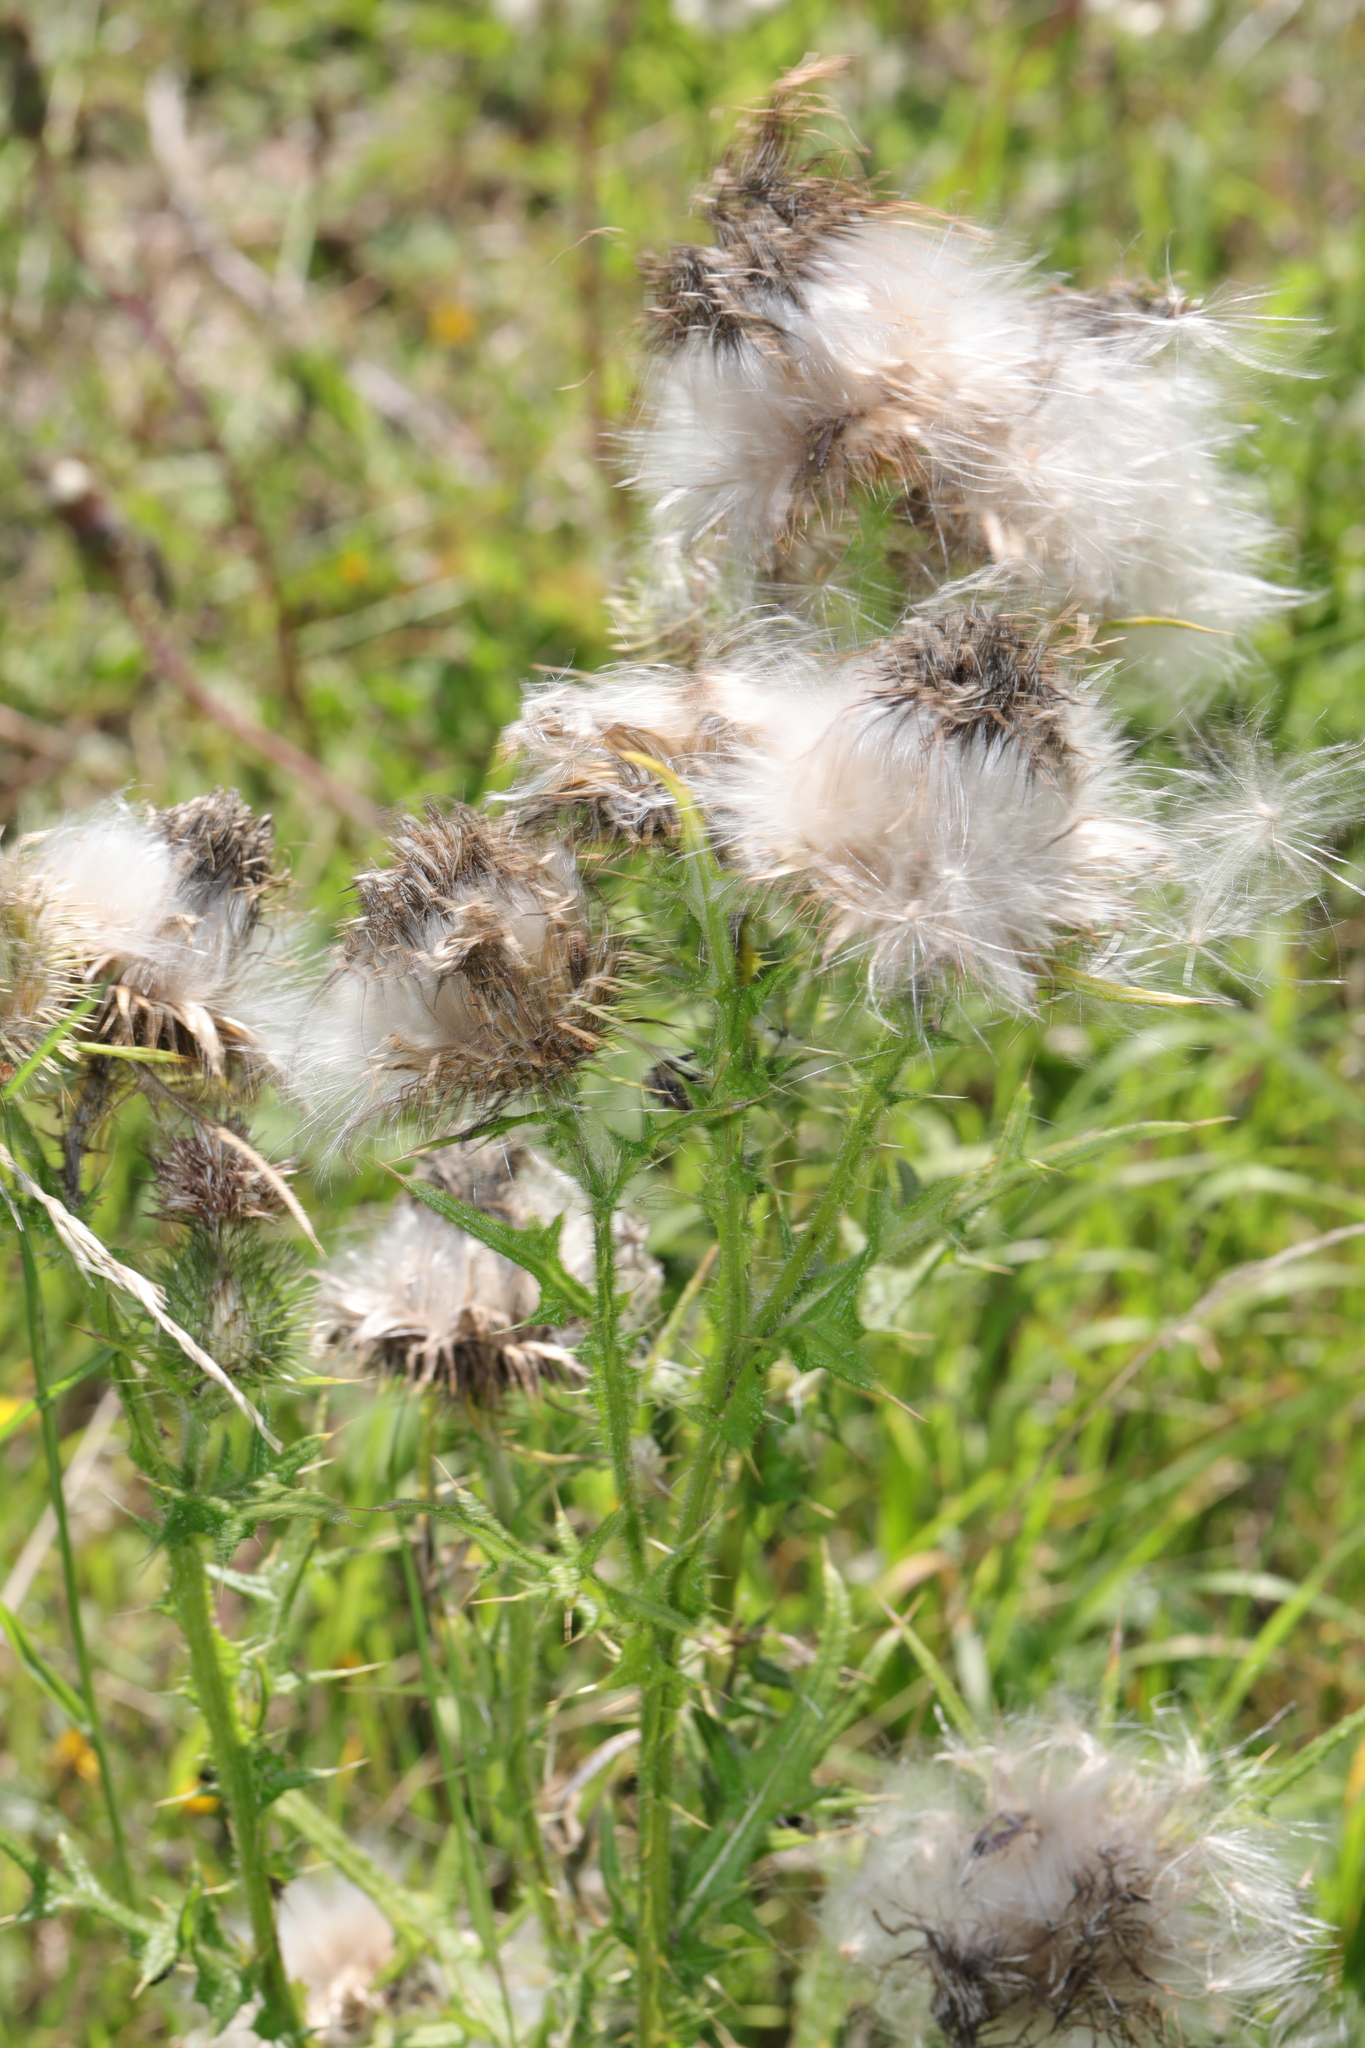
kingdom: Plantae
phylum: Tracheophyta
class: Magnoliopsida
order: Asterales
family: Asteraceae
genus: Cirsium
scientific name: Cirsium vulgare
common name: Bull thistle
